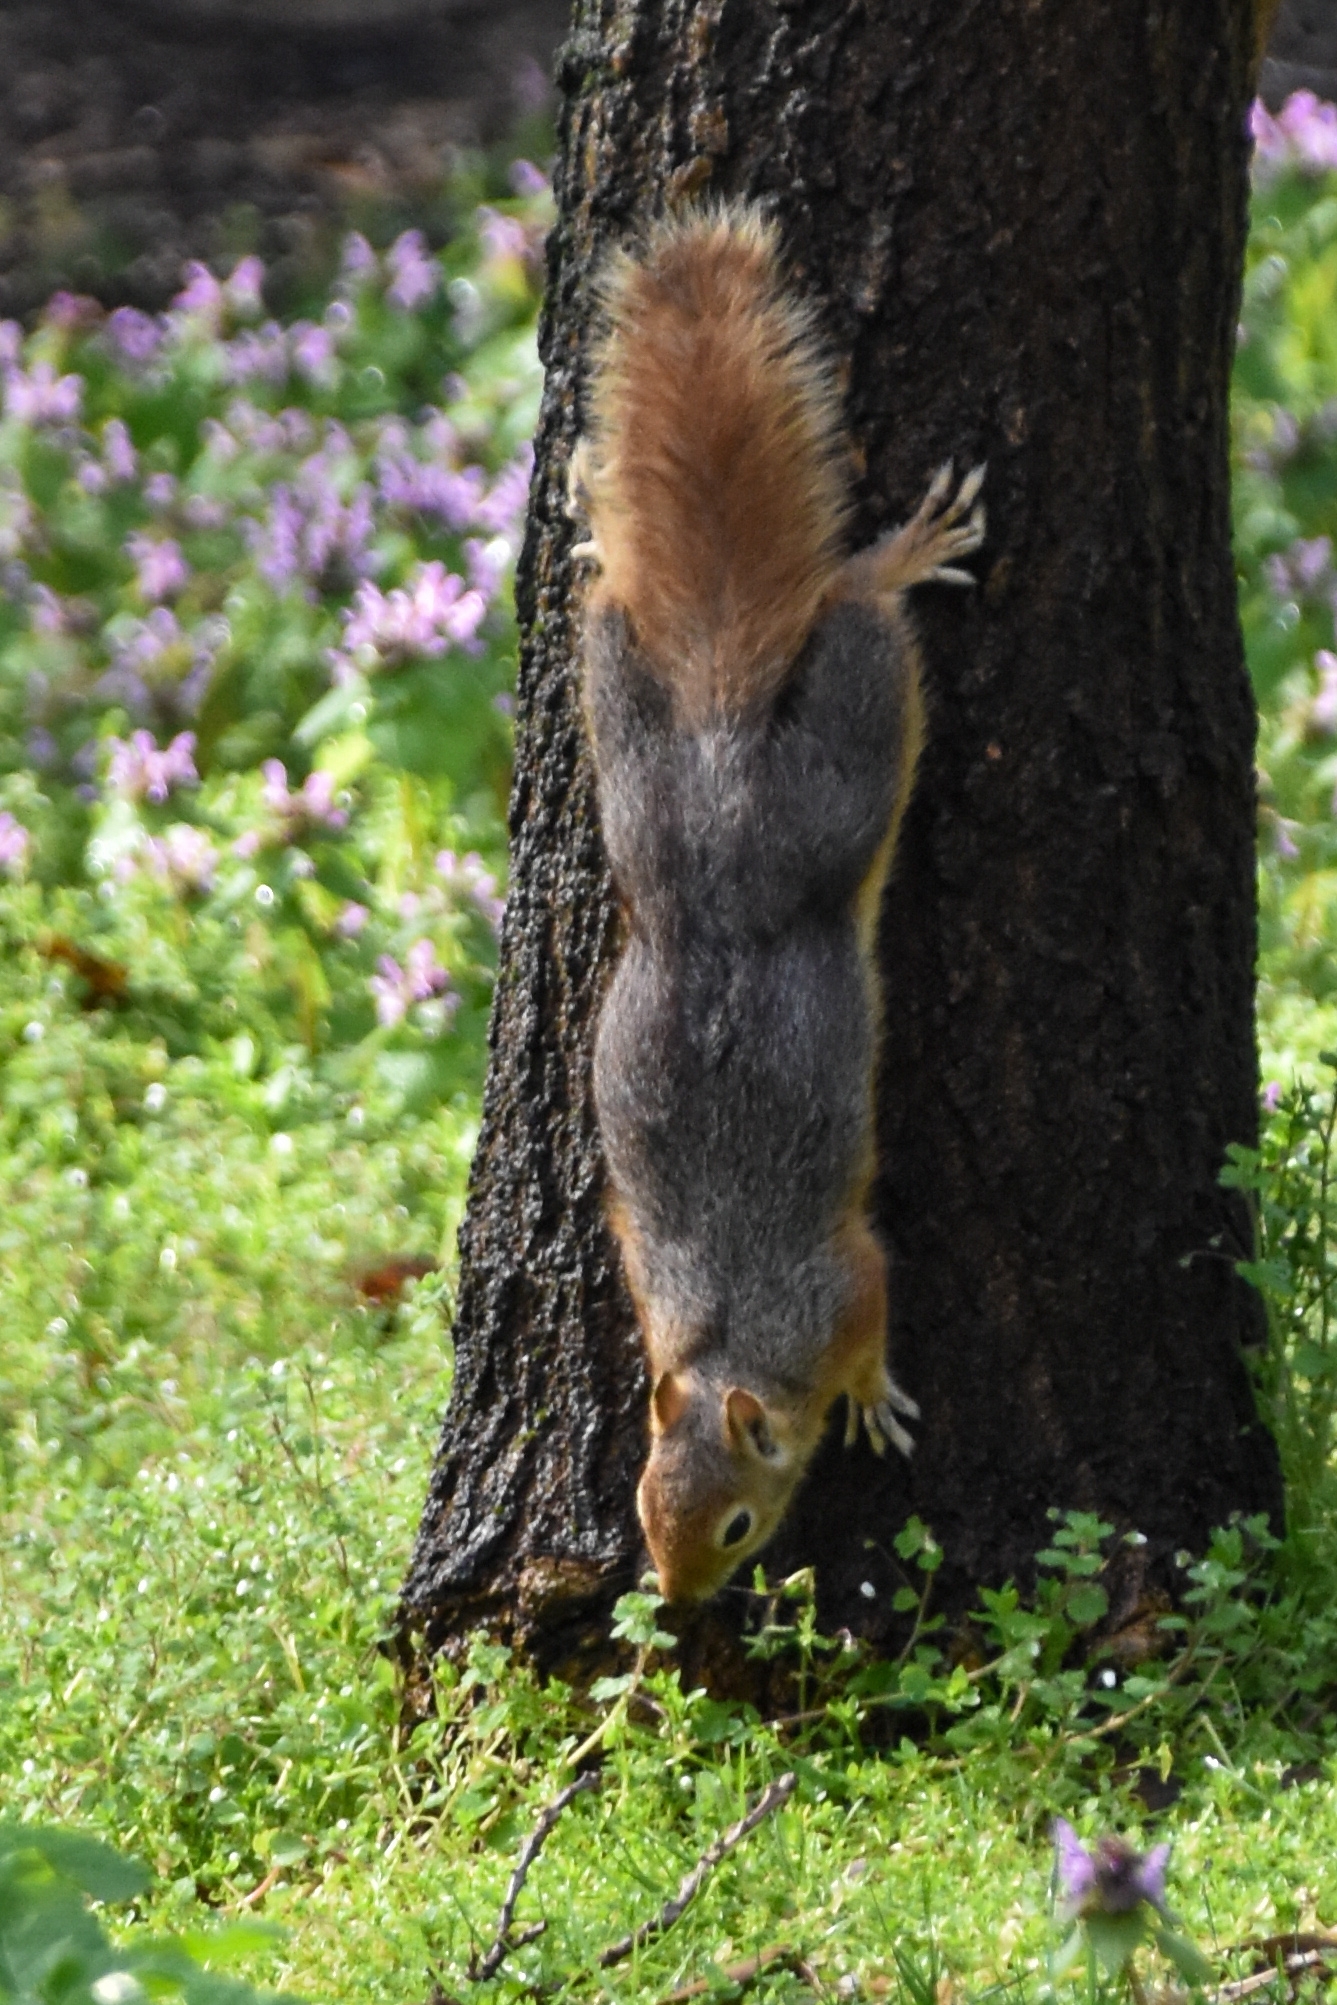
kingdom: Animalia
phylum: Chordata
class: Mammalia
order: Rodentia
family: Sciuridae
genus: Sciurus
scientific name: Sciurus anomalus
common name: Caucasian squirrel
